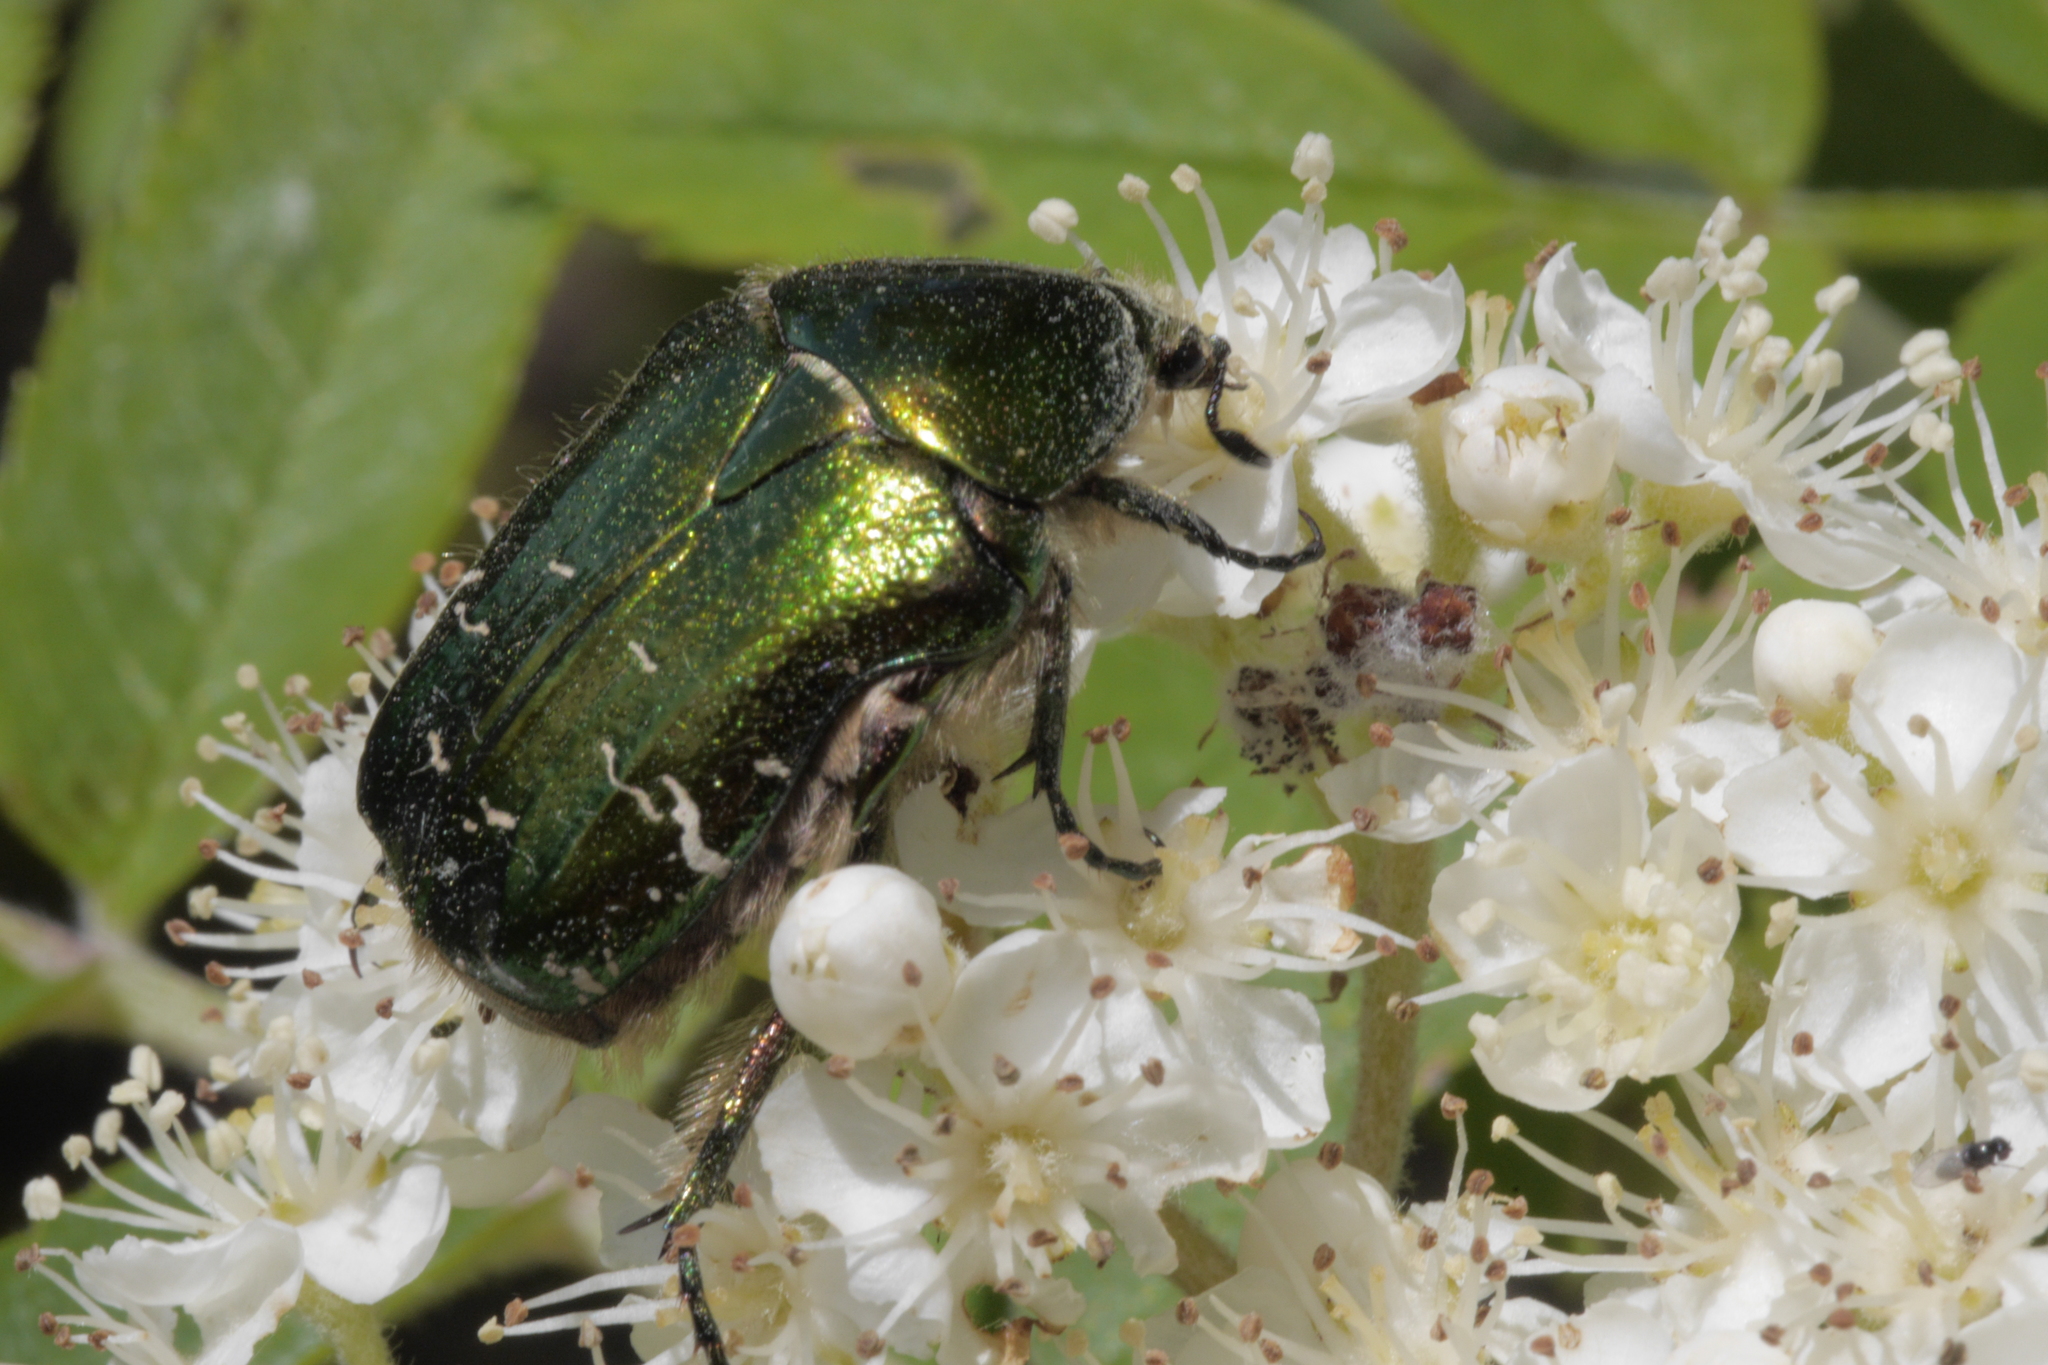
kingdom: Animalia
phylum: Arthropoda
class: Insecta
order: Coleoptera
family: Scarabaeidae
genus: Cetonia
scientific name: Cetonia aurata
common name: Rose chafer
